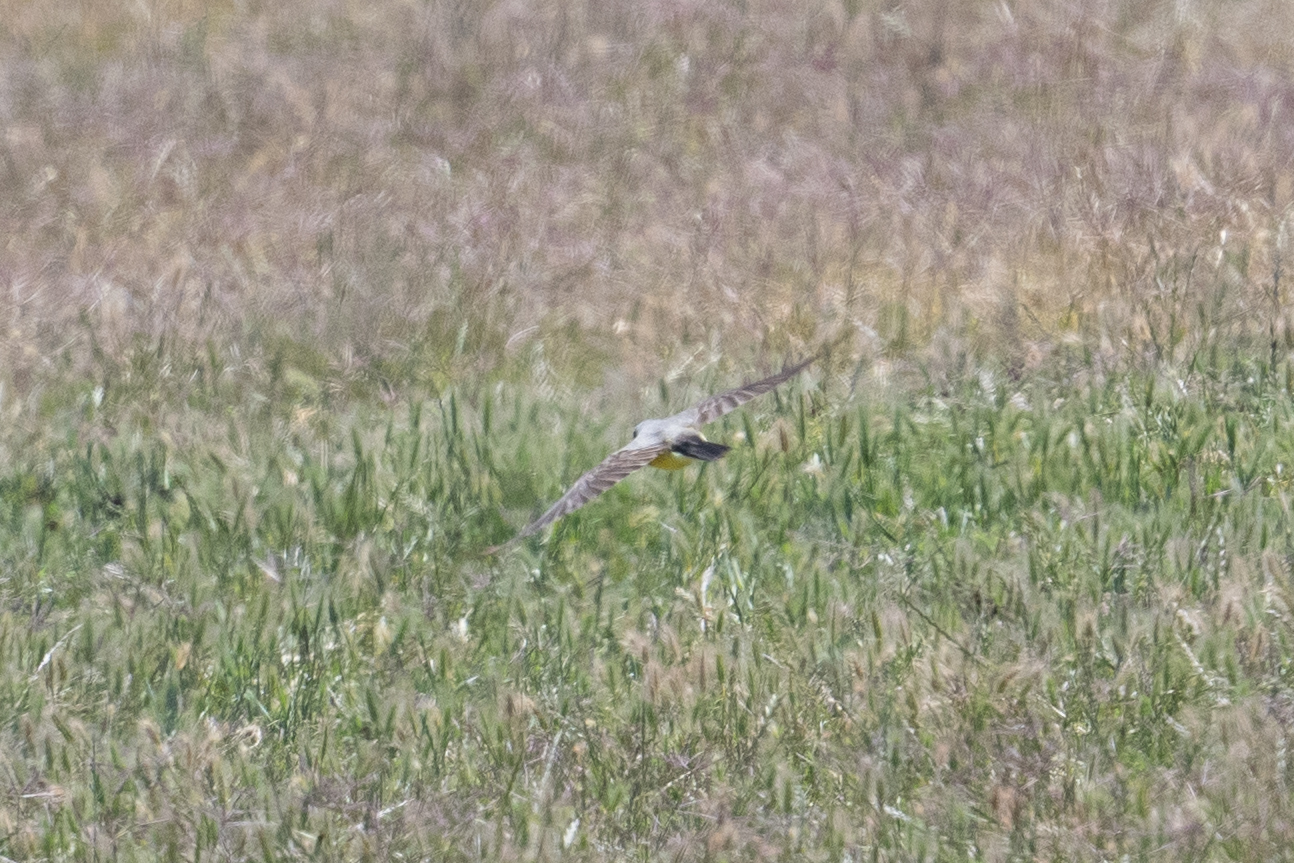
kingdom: Animalia
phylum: Chordata
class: Aves
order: Passeriformes
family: Tyrannidae
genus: Tyrannus
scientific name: Tyrannus verticalis
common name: Western kingbird
